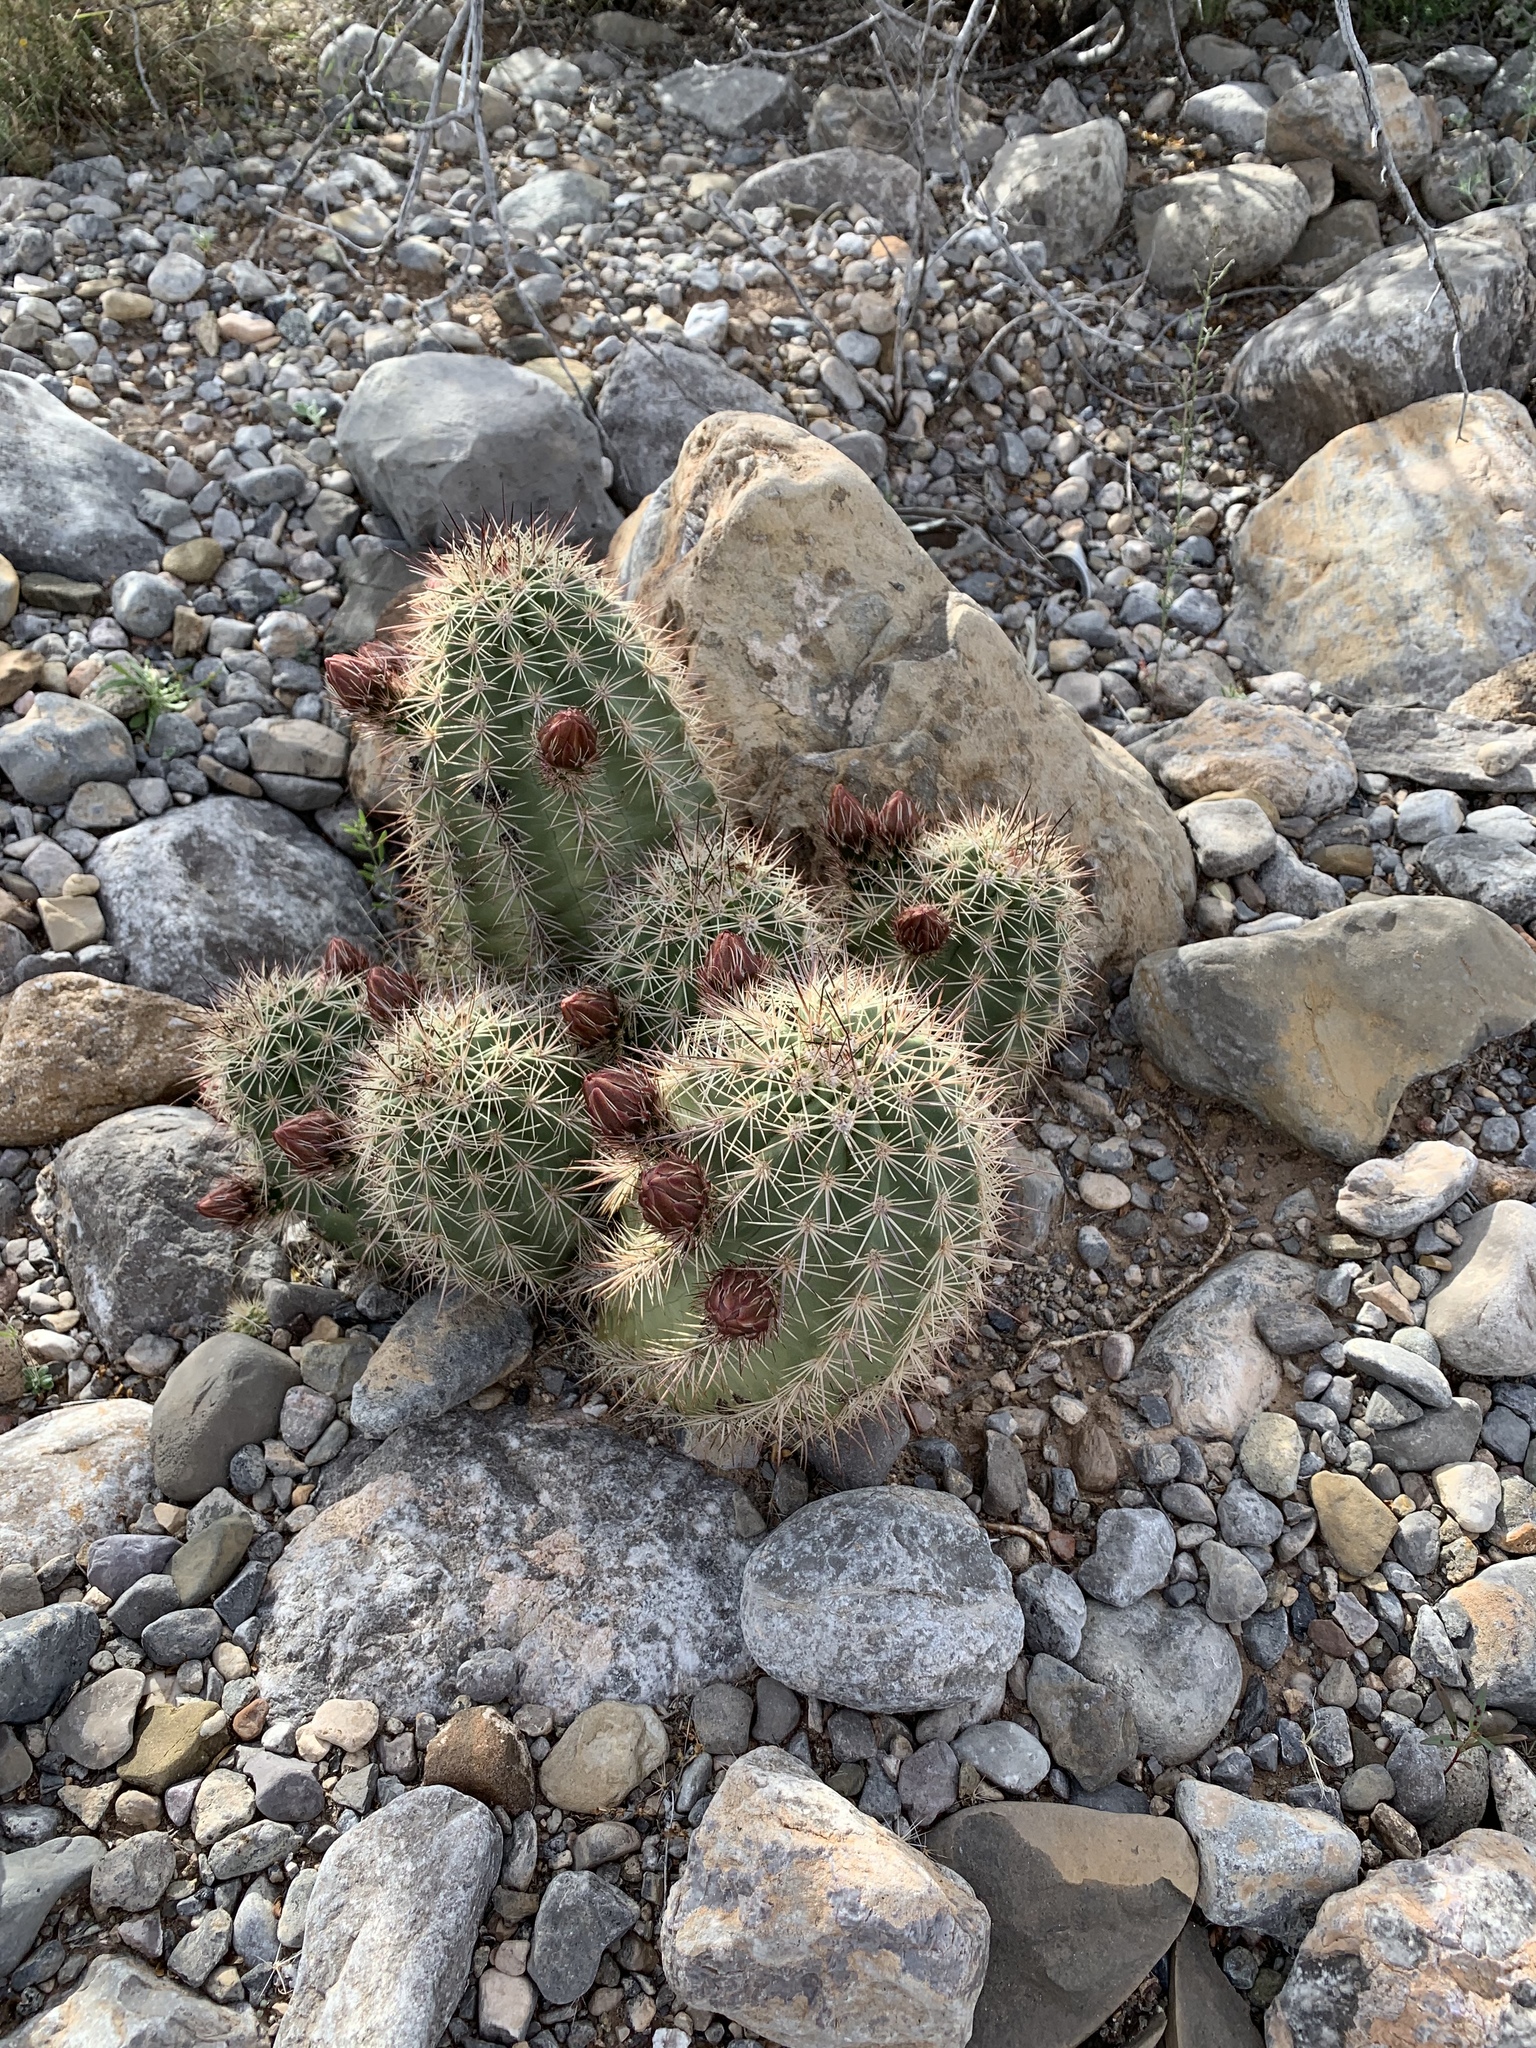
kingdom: Plantae
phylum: Tracheophyta
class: Magnoliopsida
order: Caryophyllales
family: Cactaceae
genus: Echinocereus
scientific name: Echinocereus coccineus
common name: Scarlet hedgehog cactus
